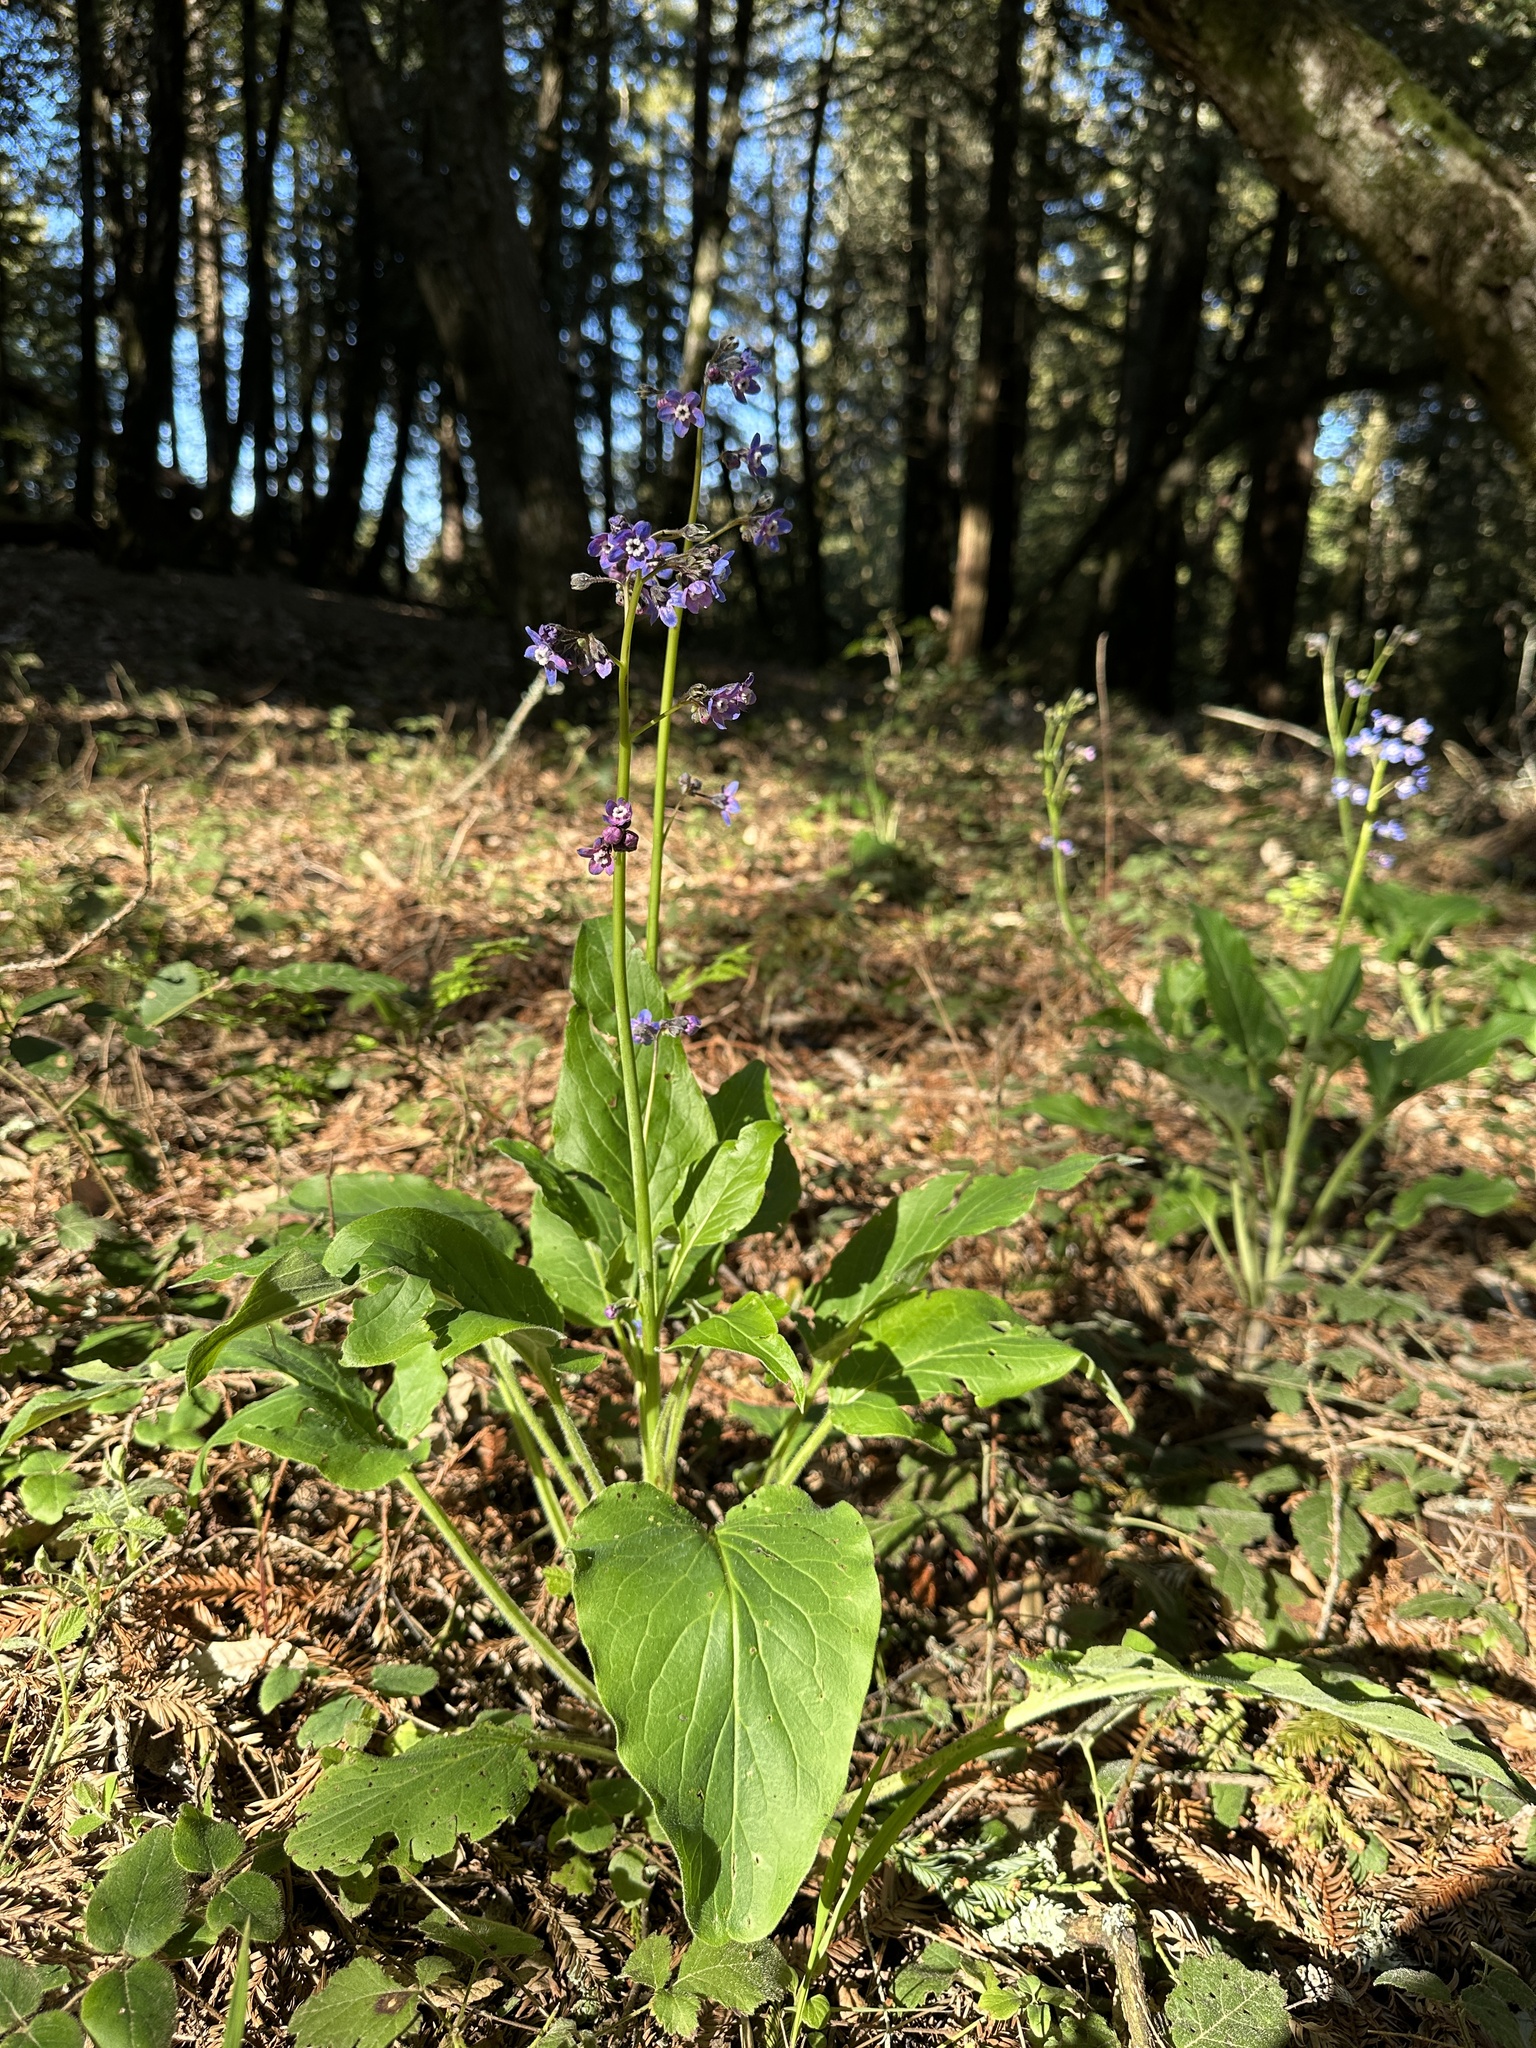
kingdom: Plantae
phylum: Tracheophyta
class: Magnoliopsida
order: Boraginales
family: Boraginaceae
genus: Adelinia
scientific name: Adelinia grande
